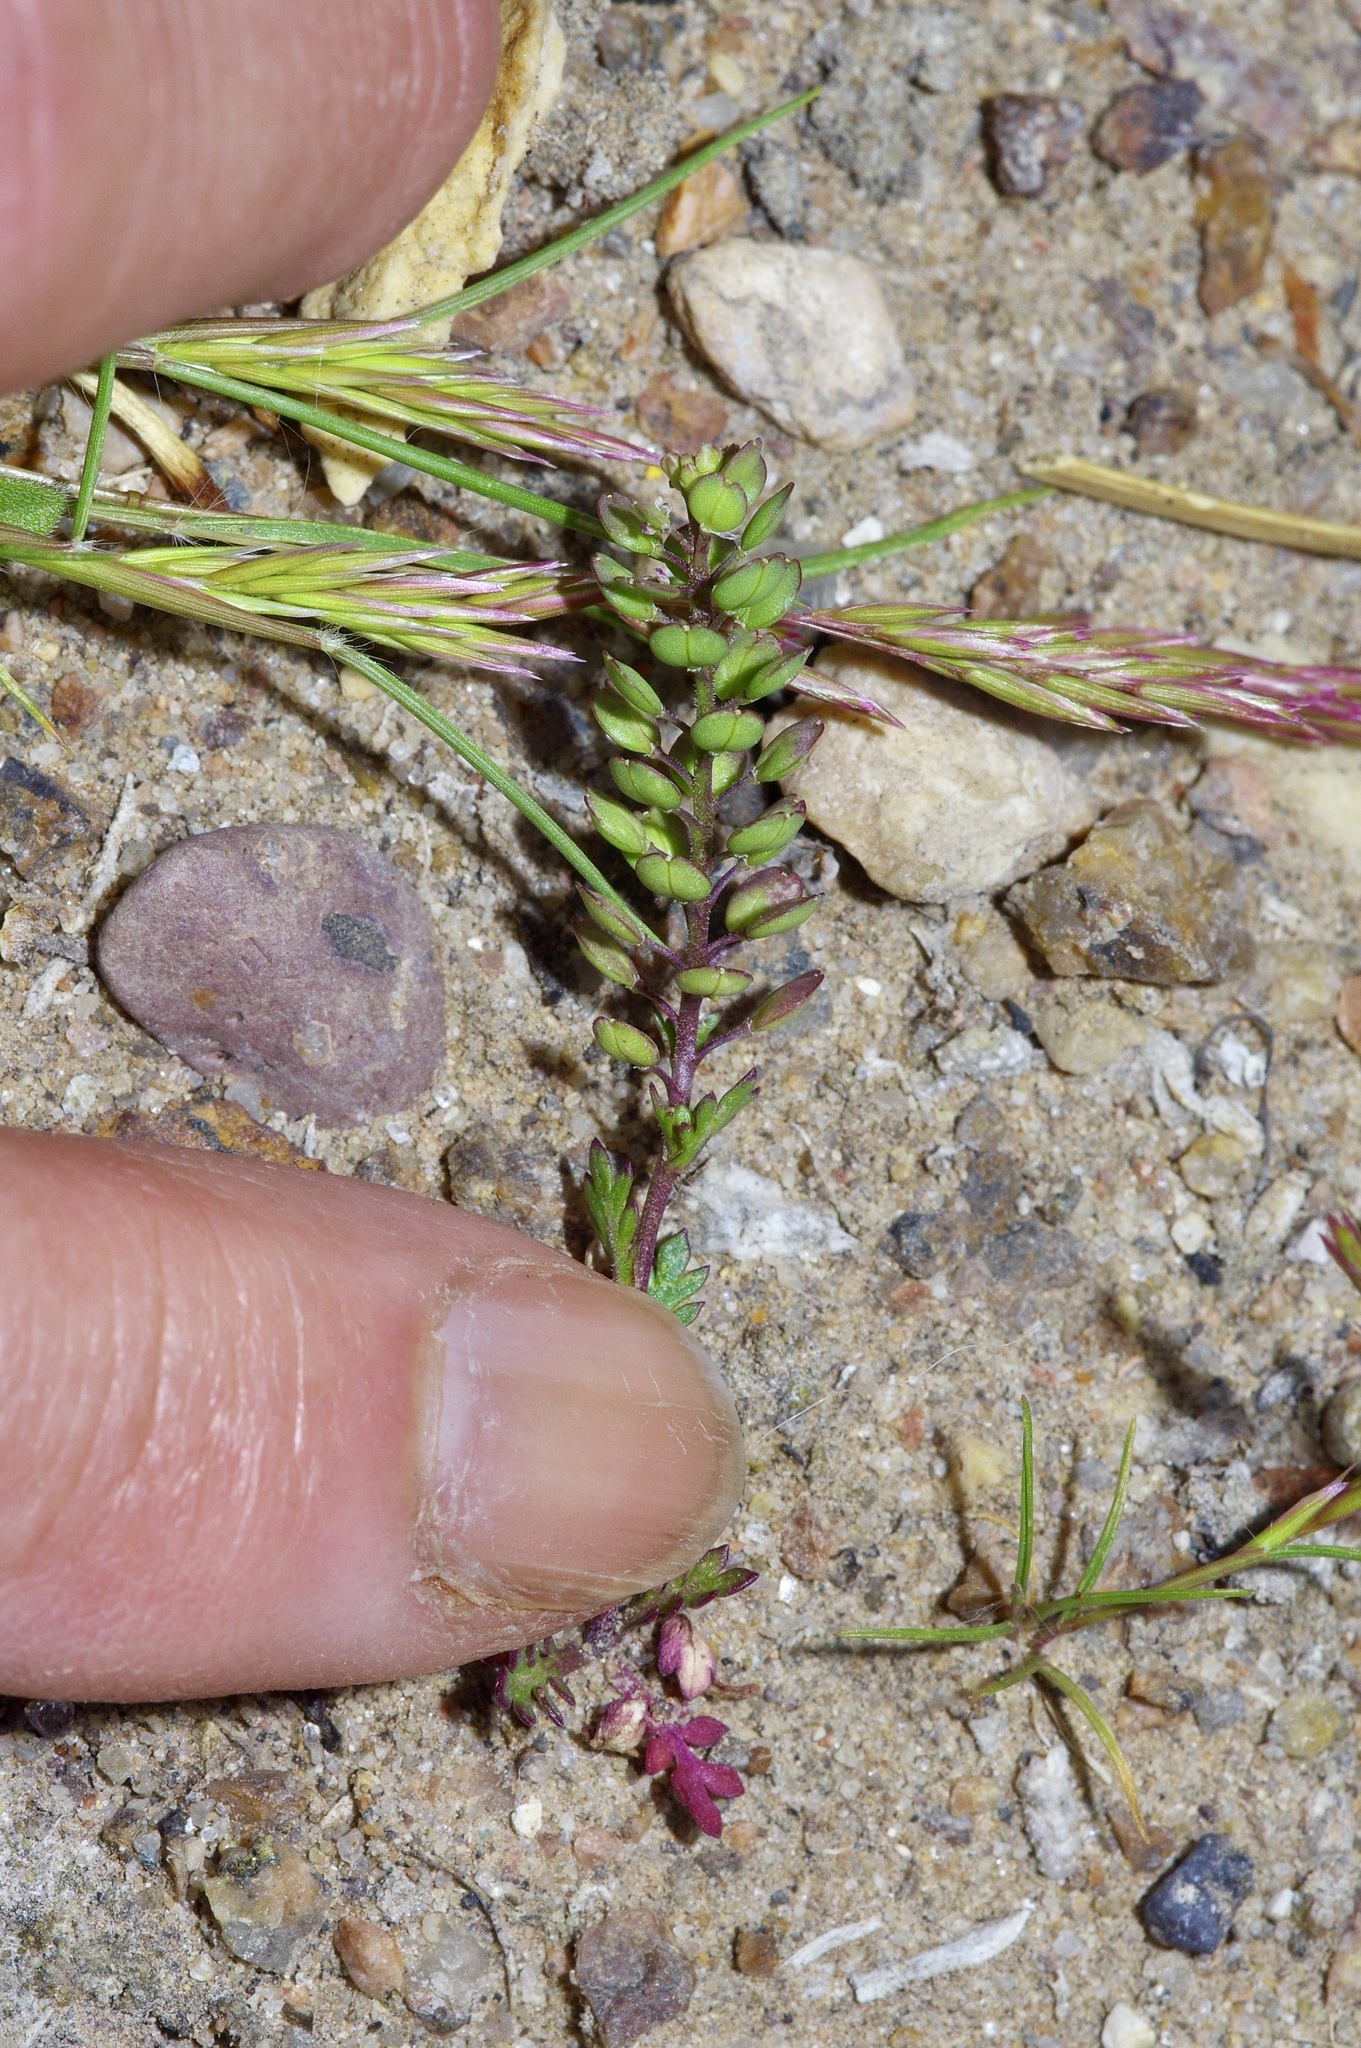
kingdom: Plantae
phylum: Tracheophyta
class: Magnoliopsida
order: Brassicales
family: Brassicaceae
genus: Lepidium
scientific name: Lepidium oblongum
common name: Veiny pepperweed
